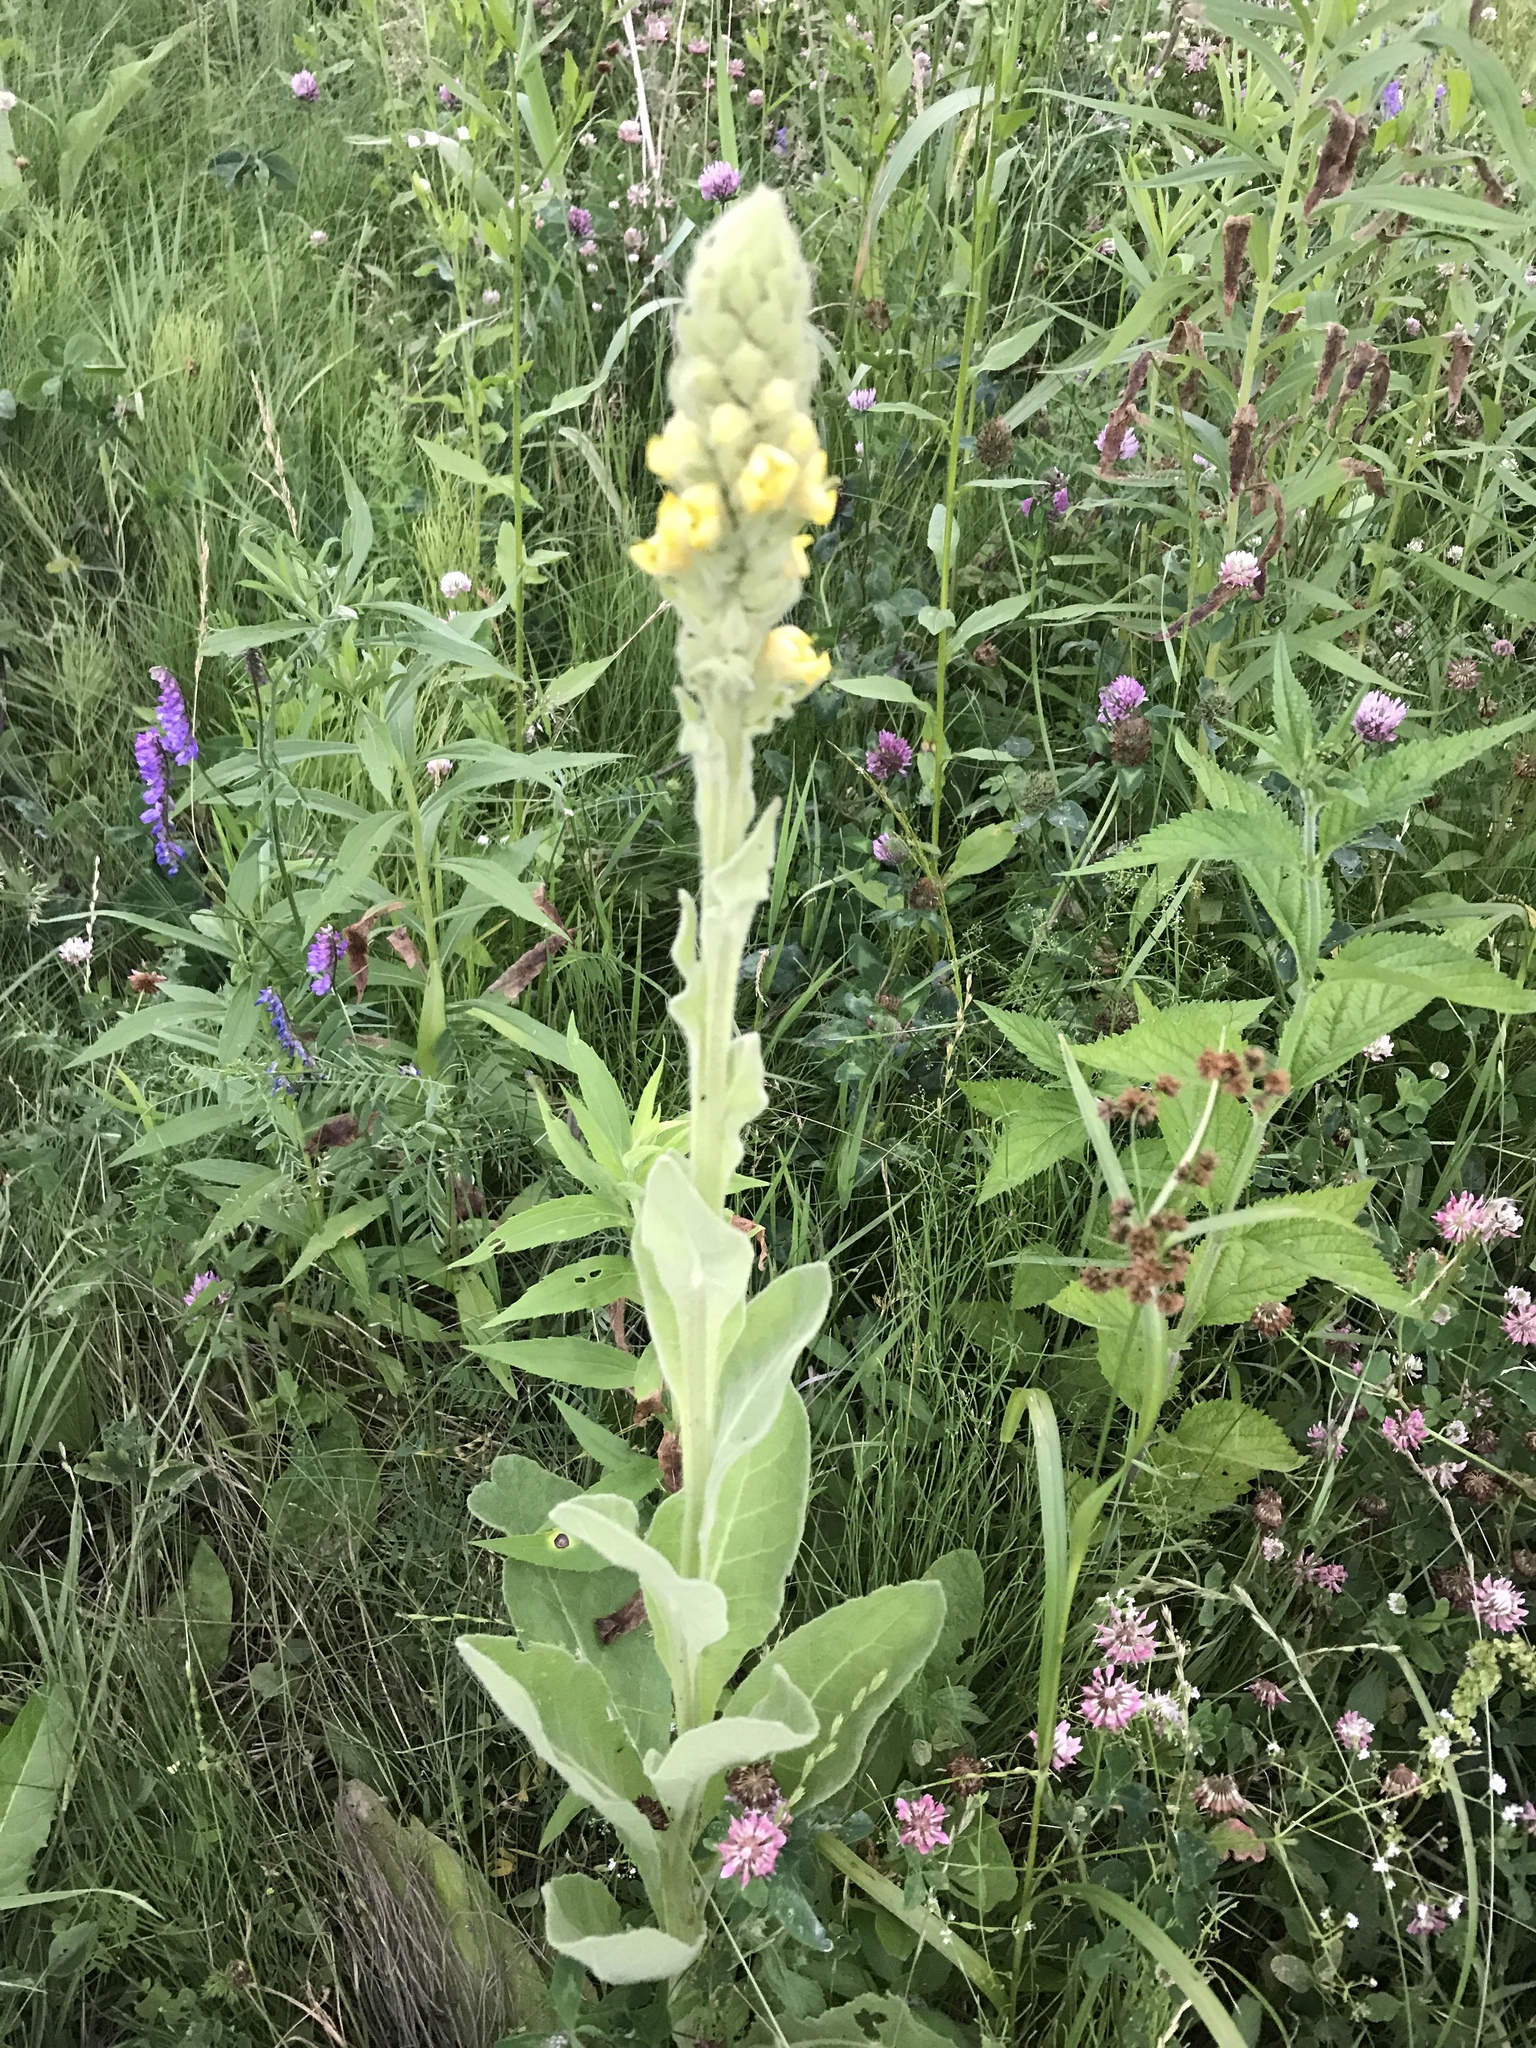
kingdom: Plantae
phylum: Tracheophyta
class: Magnoliopsida
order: Lamiales
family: Scrophulariaceae
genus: Verbascum
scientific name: Verbascum thapsus
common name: Common mullein
